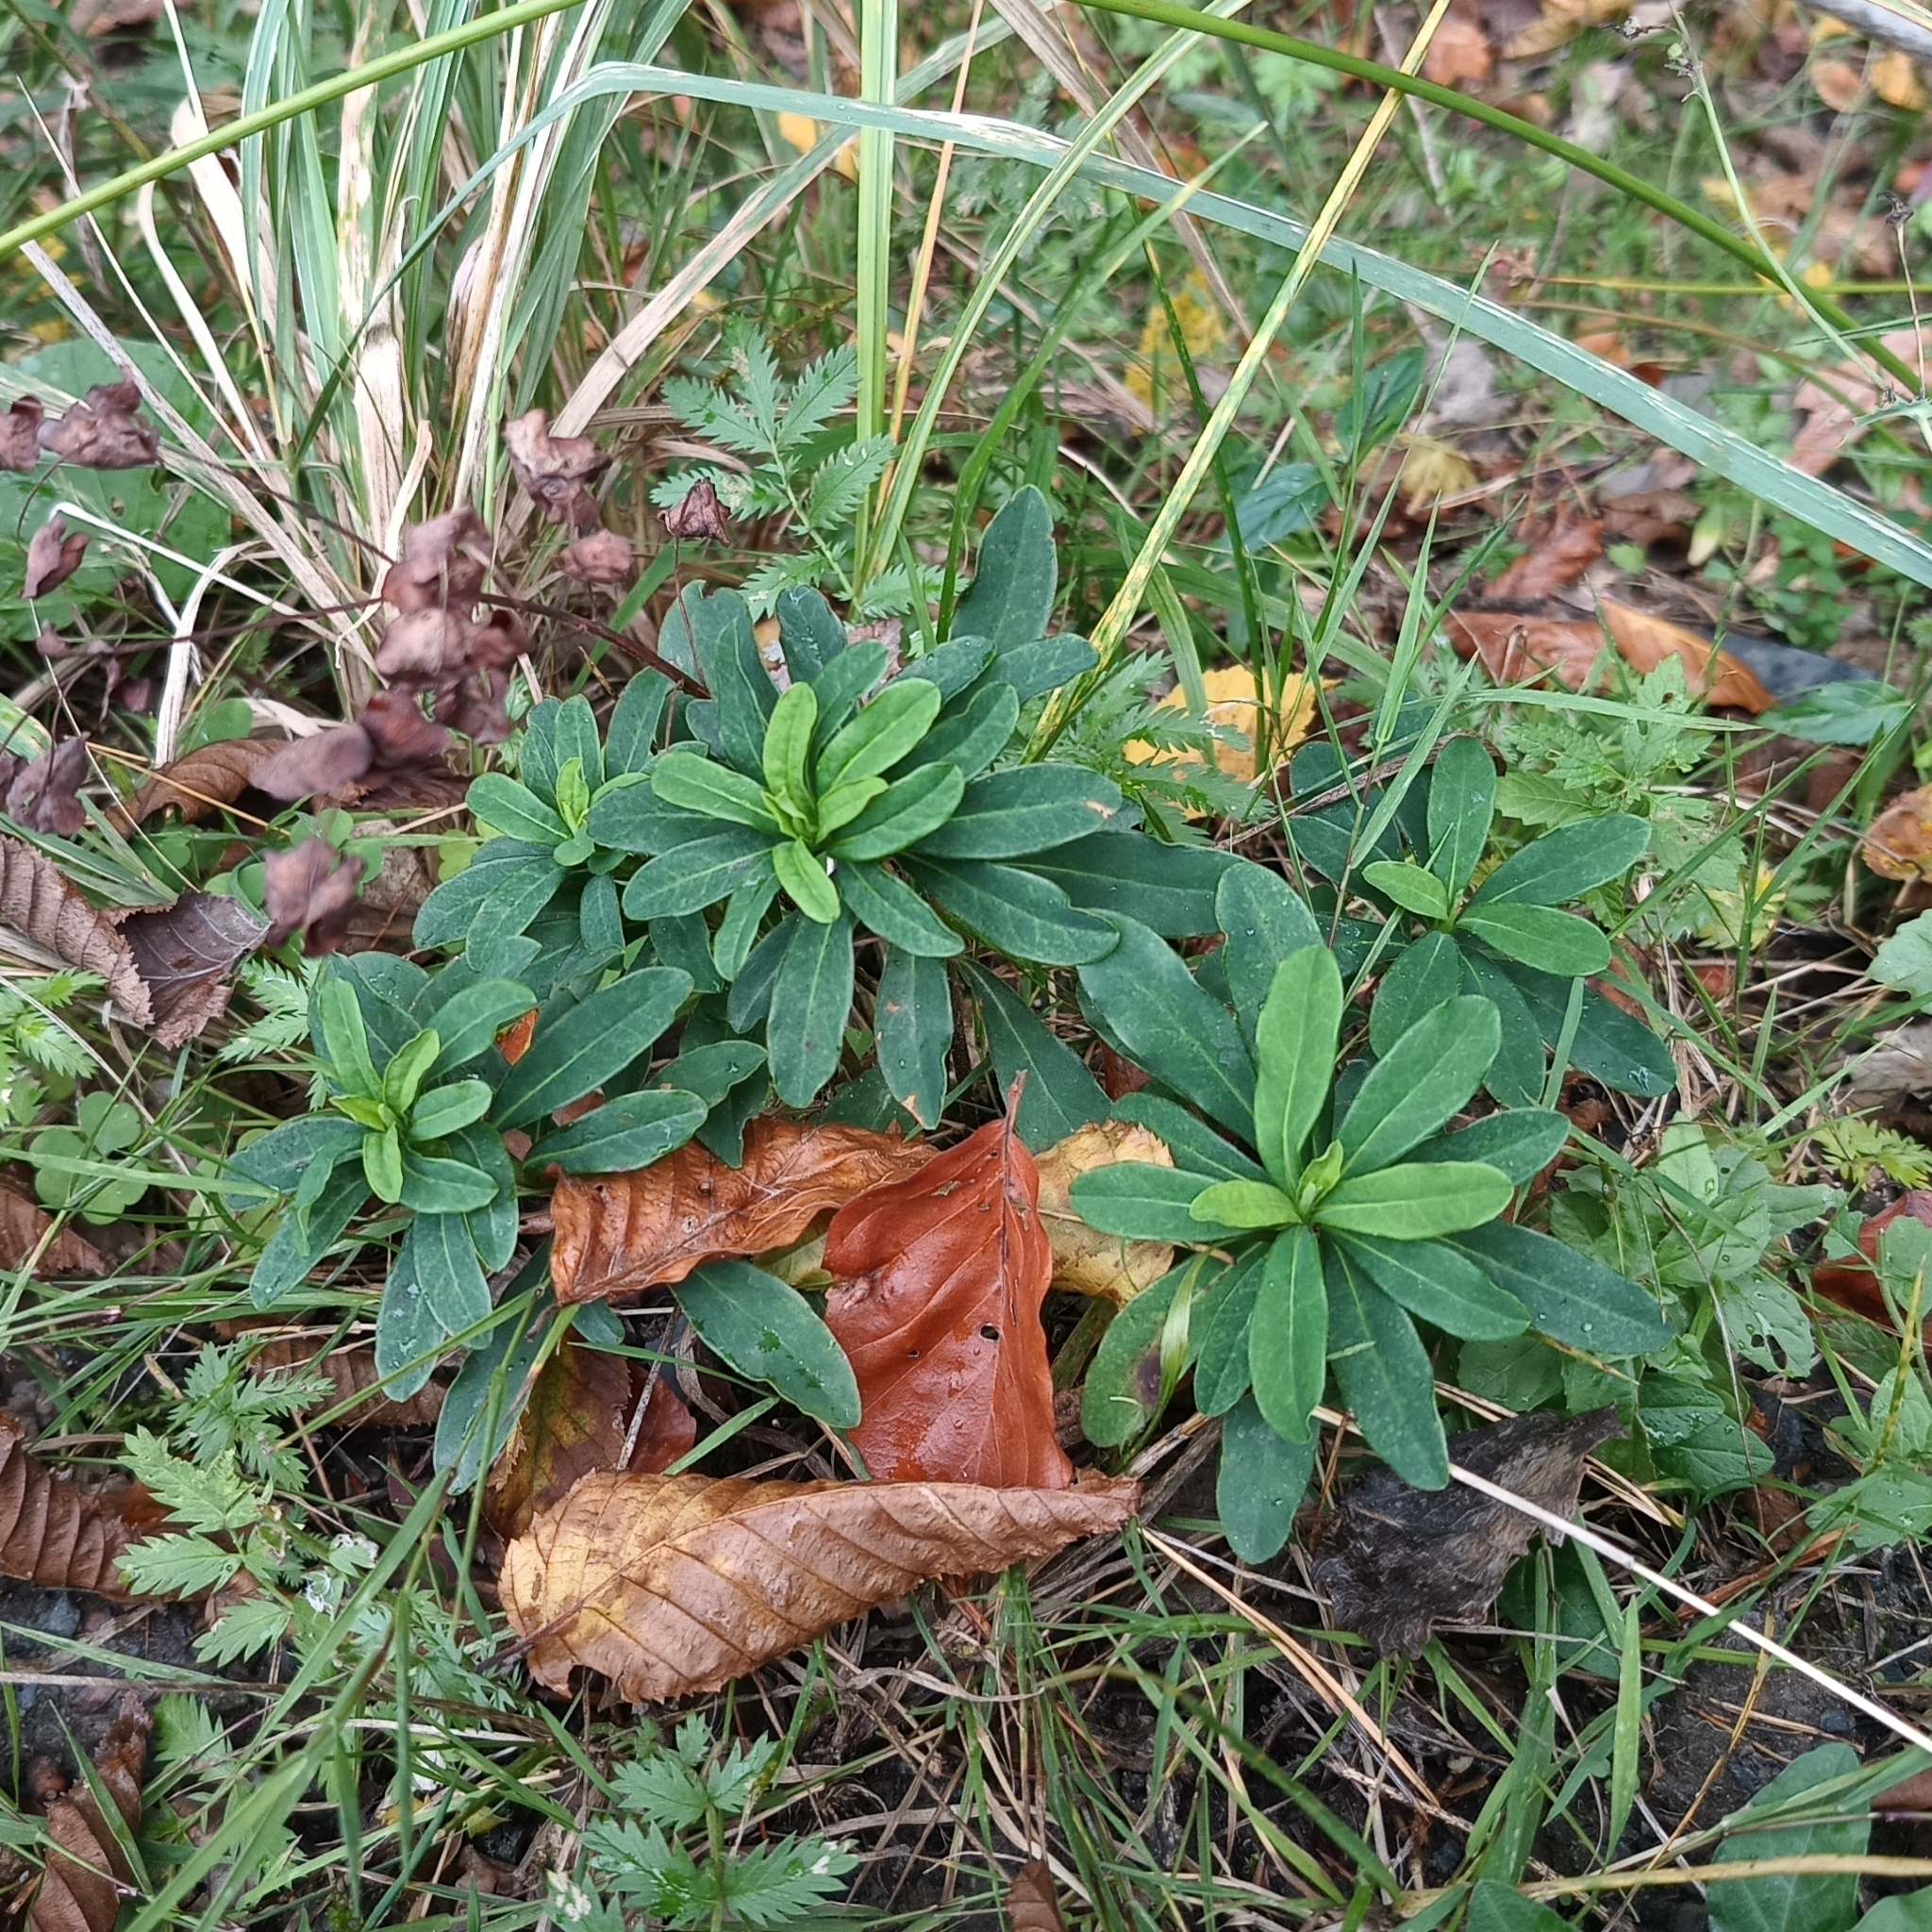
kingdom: Plantae
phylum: Tracheophyta
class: Magnoliopsida
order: Malpighiales
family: Euphorbiaceae
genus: Euphorbia
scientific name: Euphorbia amygdaloides
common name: Wood spurge
